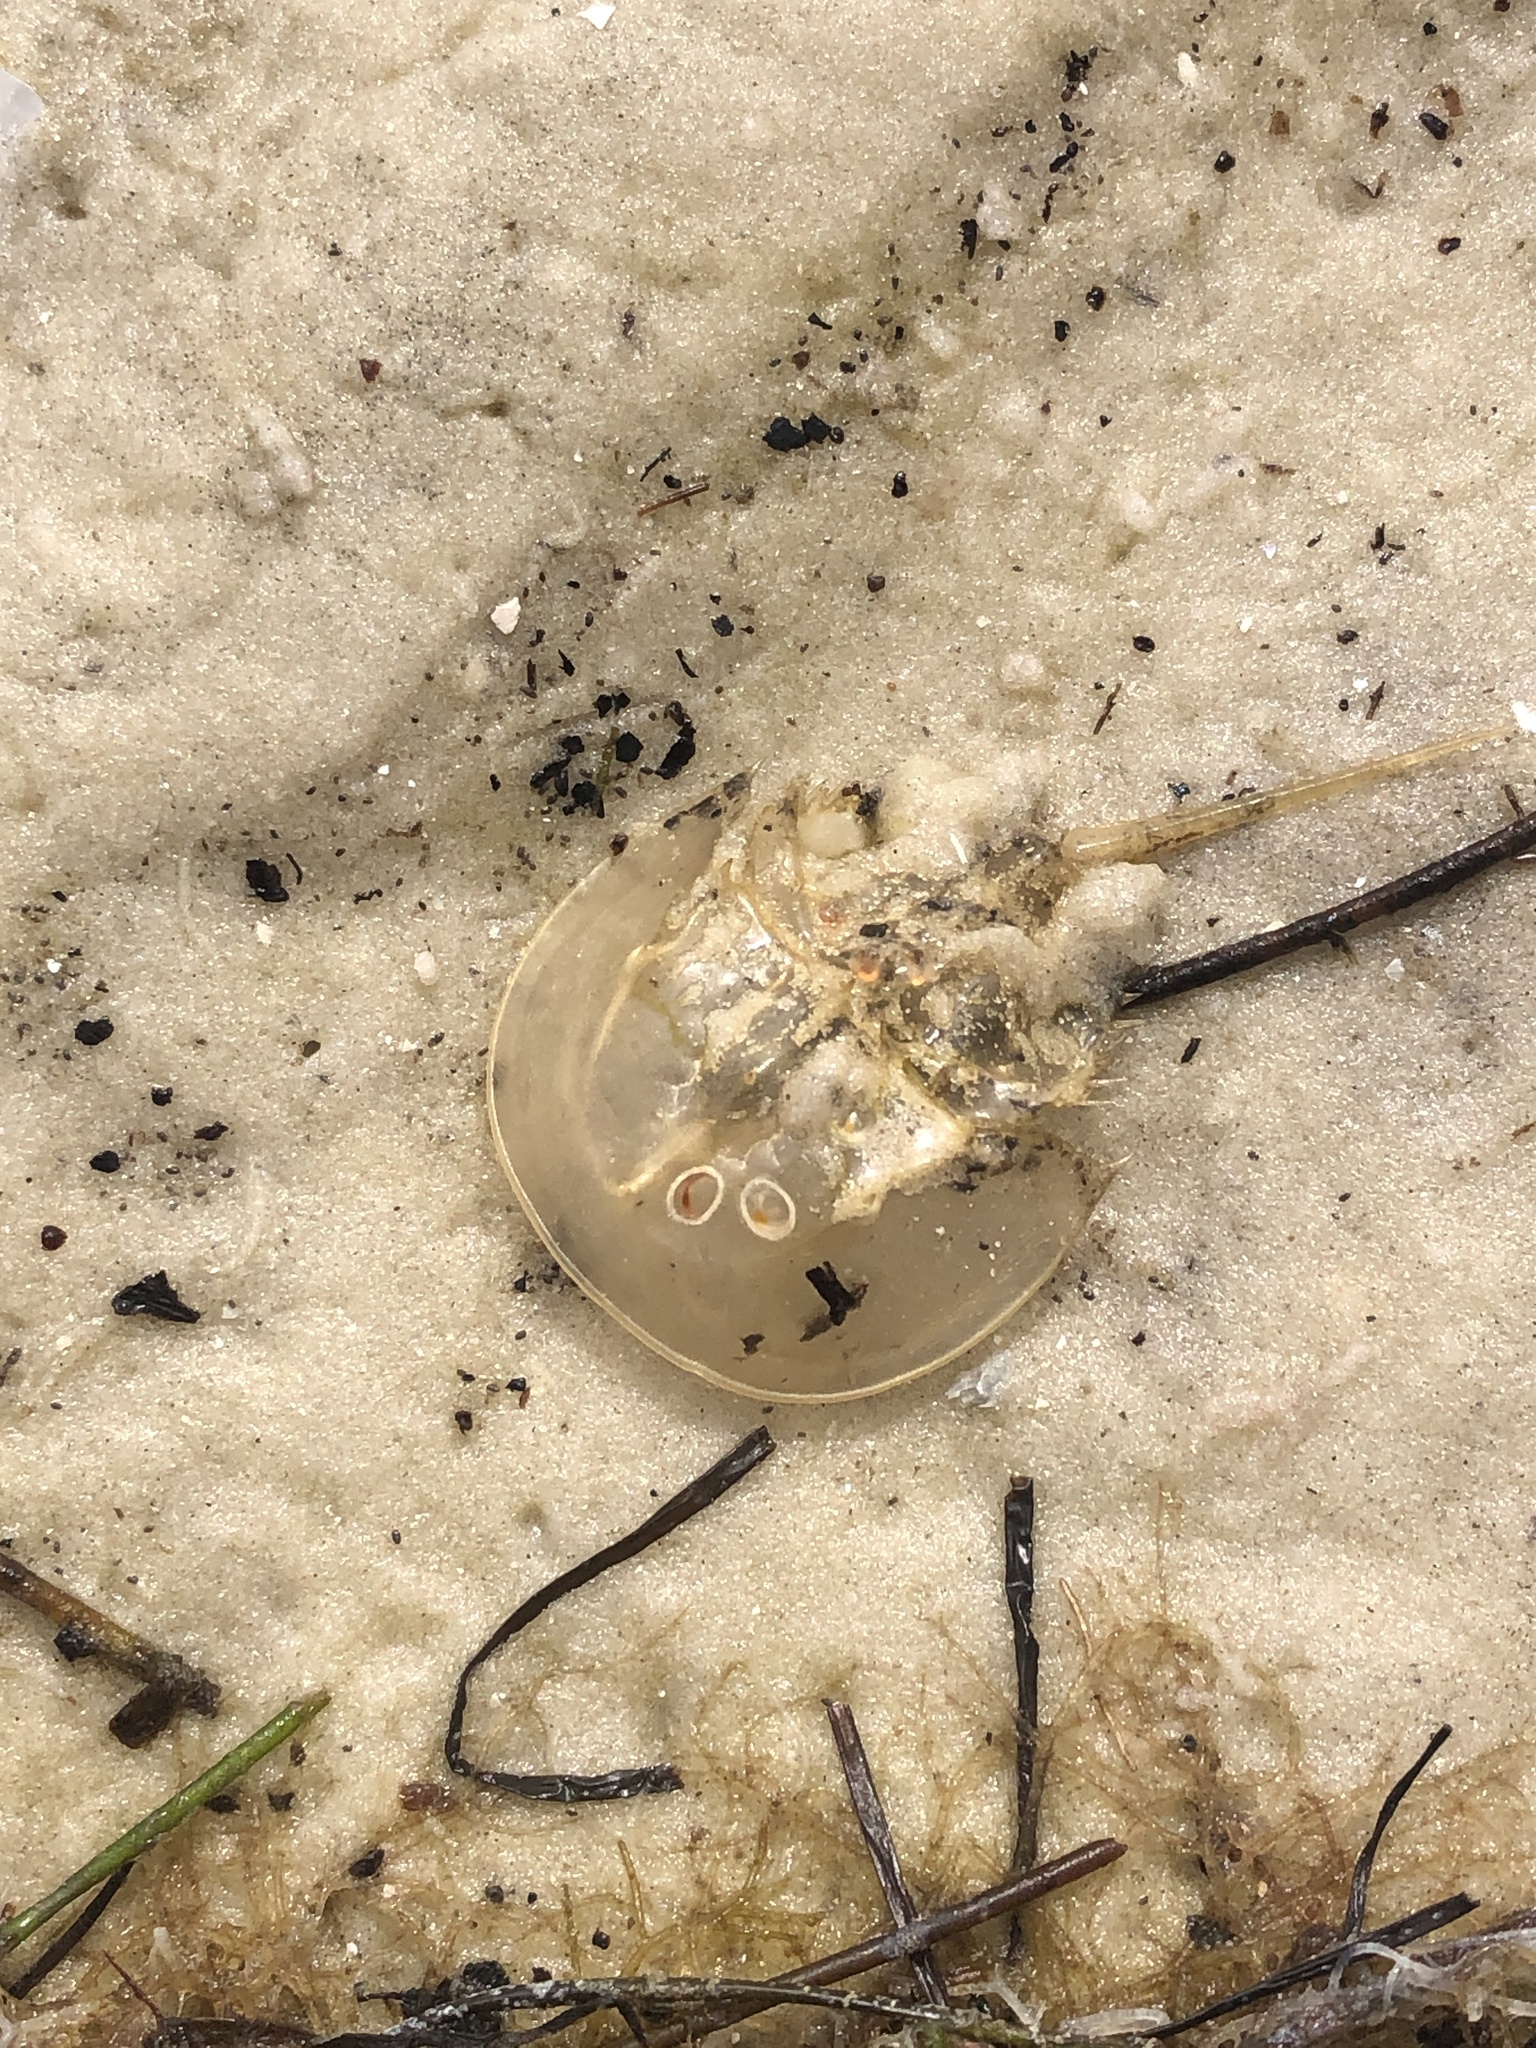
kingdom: Animalia
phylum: Arthropoda
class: Merostomata
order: Xiphosurida
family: Limulidae
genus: Limulus
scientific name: Limulus polyphemus
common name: Horseshoe crab
